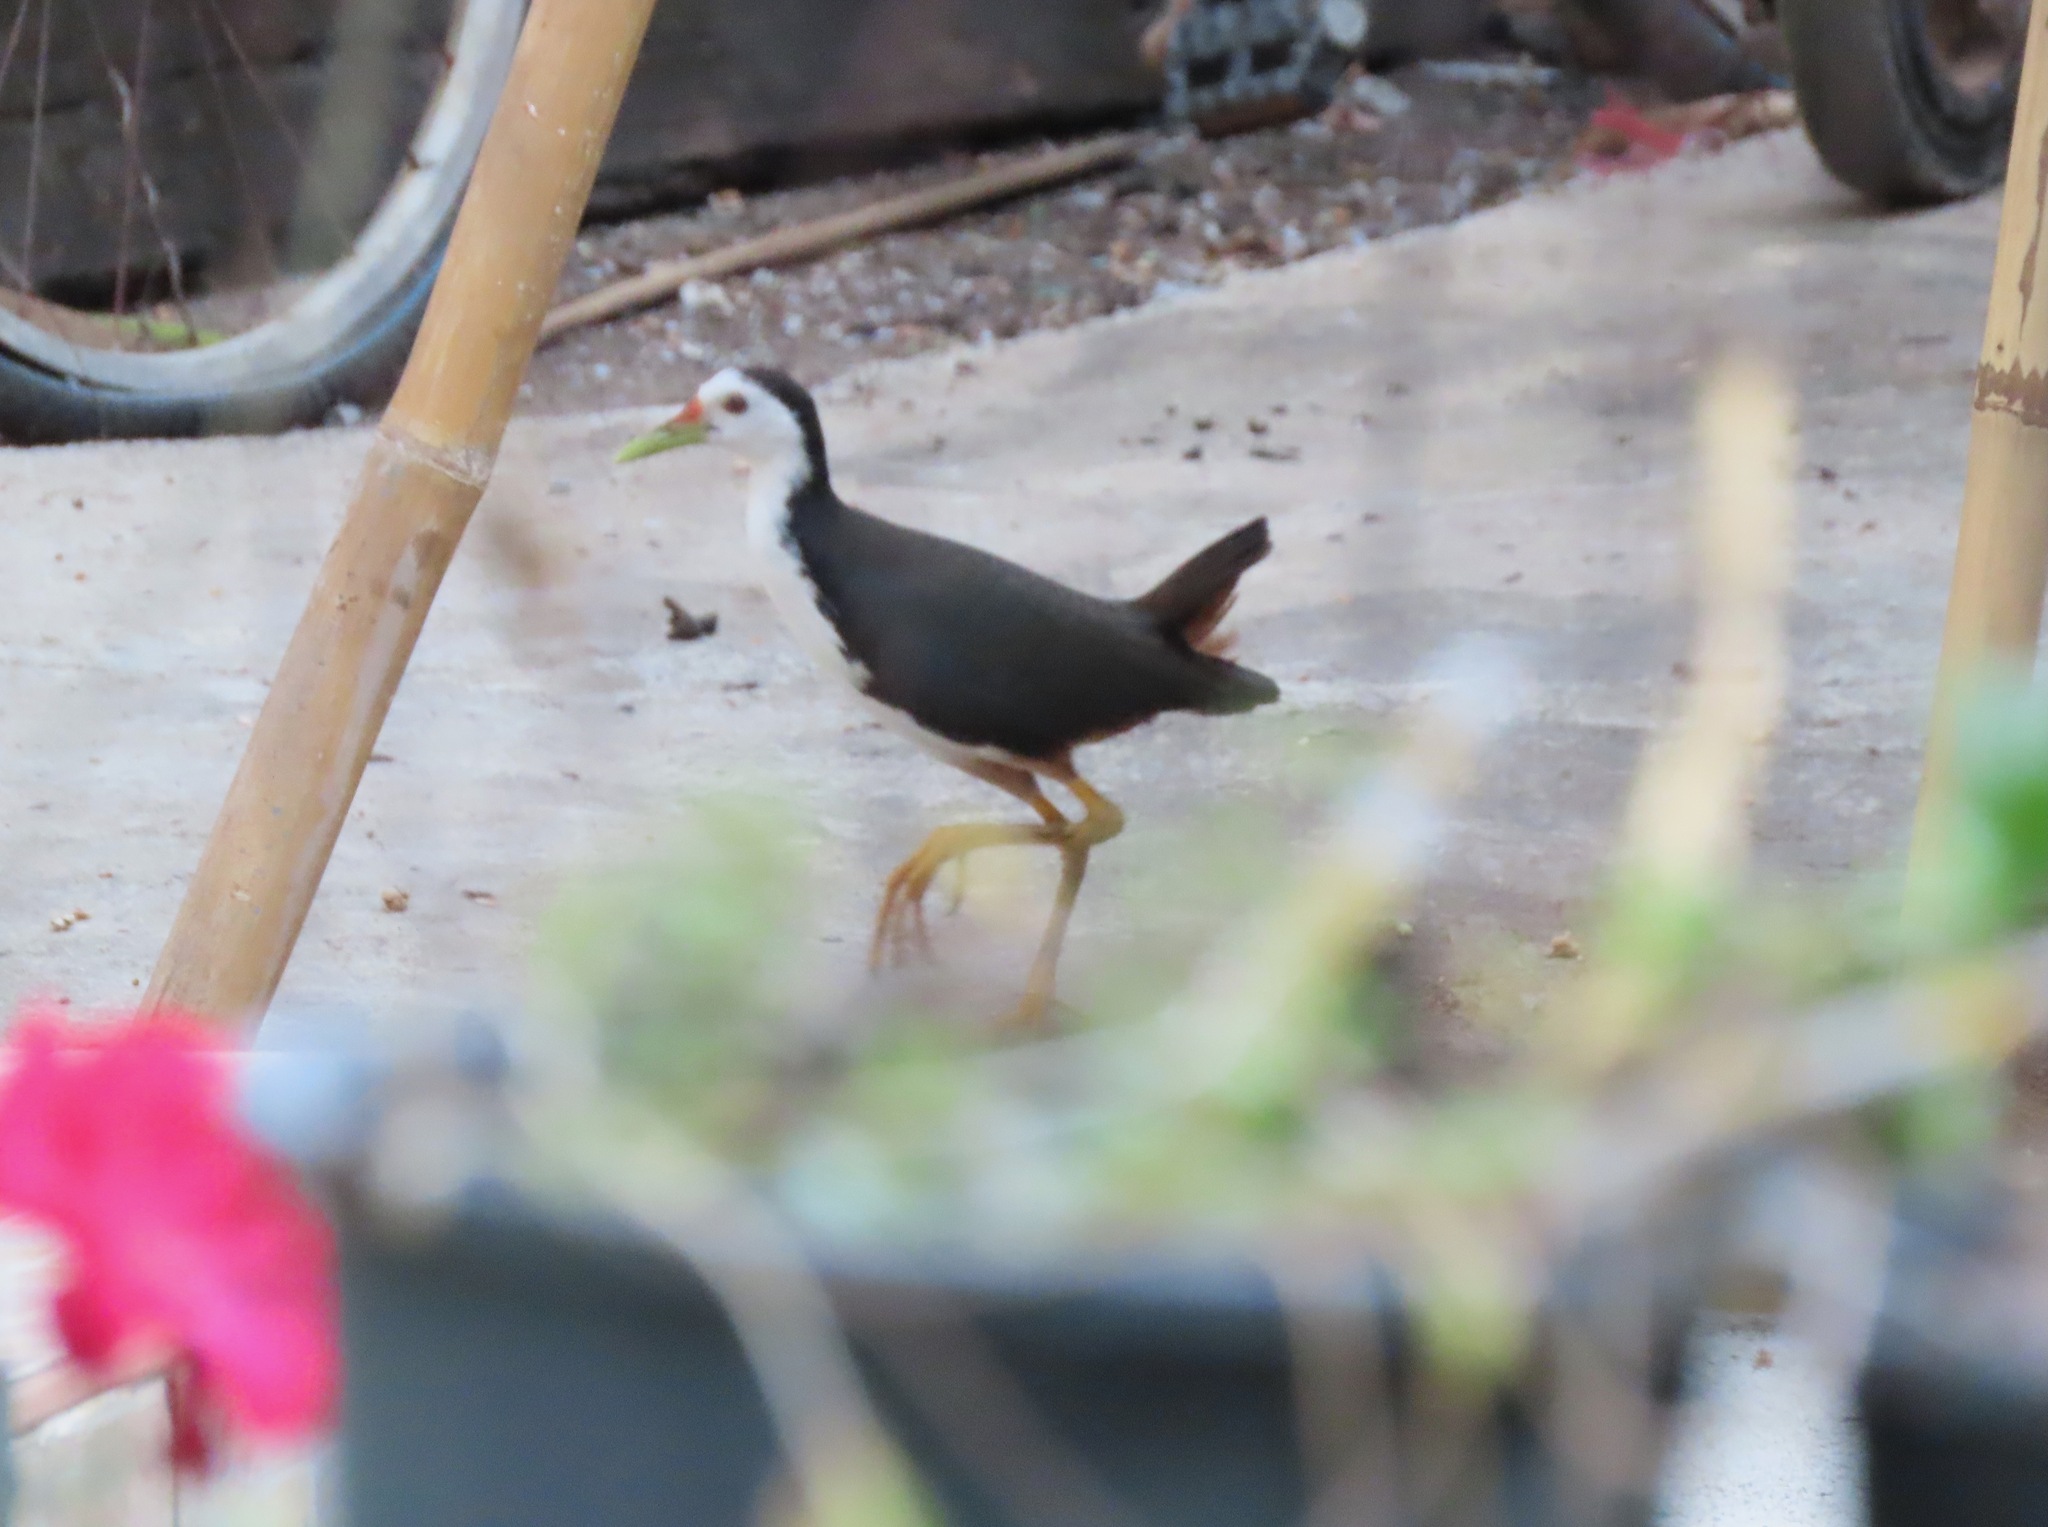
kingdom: Animalia
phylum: Chordata
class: Aves
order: Gruiformes
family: Rallidae
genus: Amaurornis
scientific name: Amaurornis phoenicurus
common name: White-breasted waterhen
